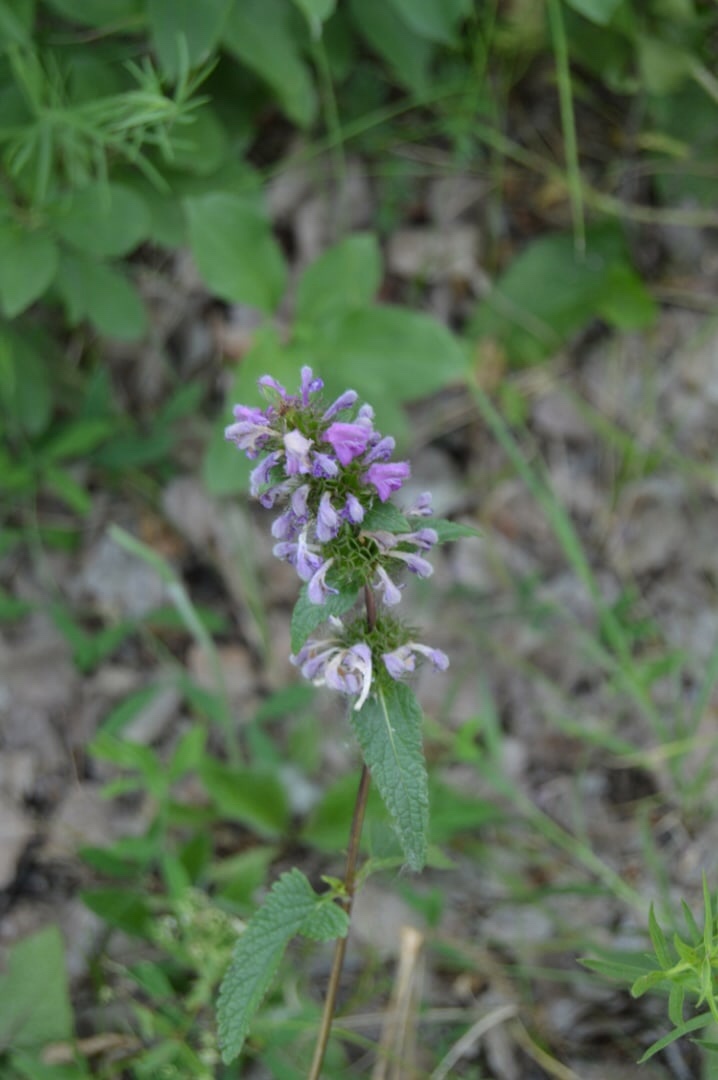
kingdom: Plantae
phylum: Tracheophyta
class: Magnoliopsida
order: Lamiales
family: Lamiaceae
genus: Phlomoides
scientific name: Phlomoides tuberosa
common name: Tuberous jerusalem sage
